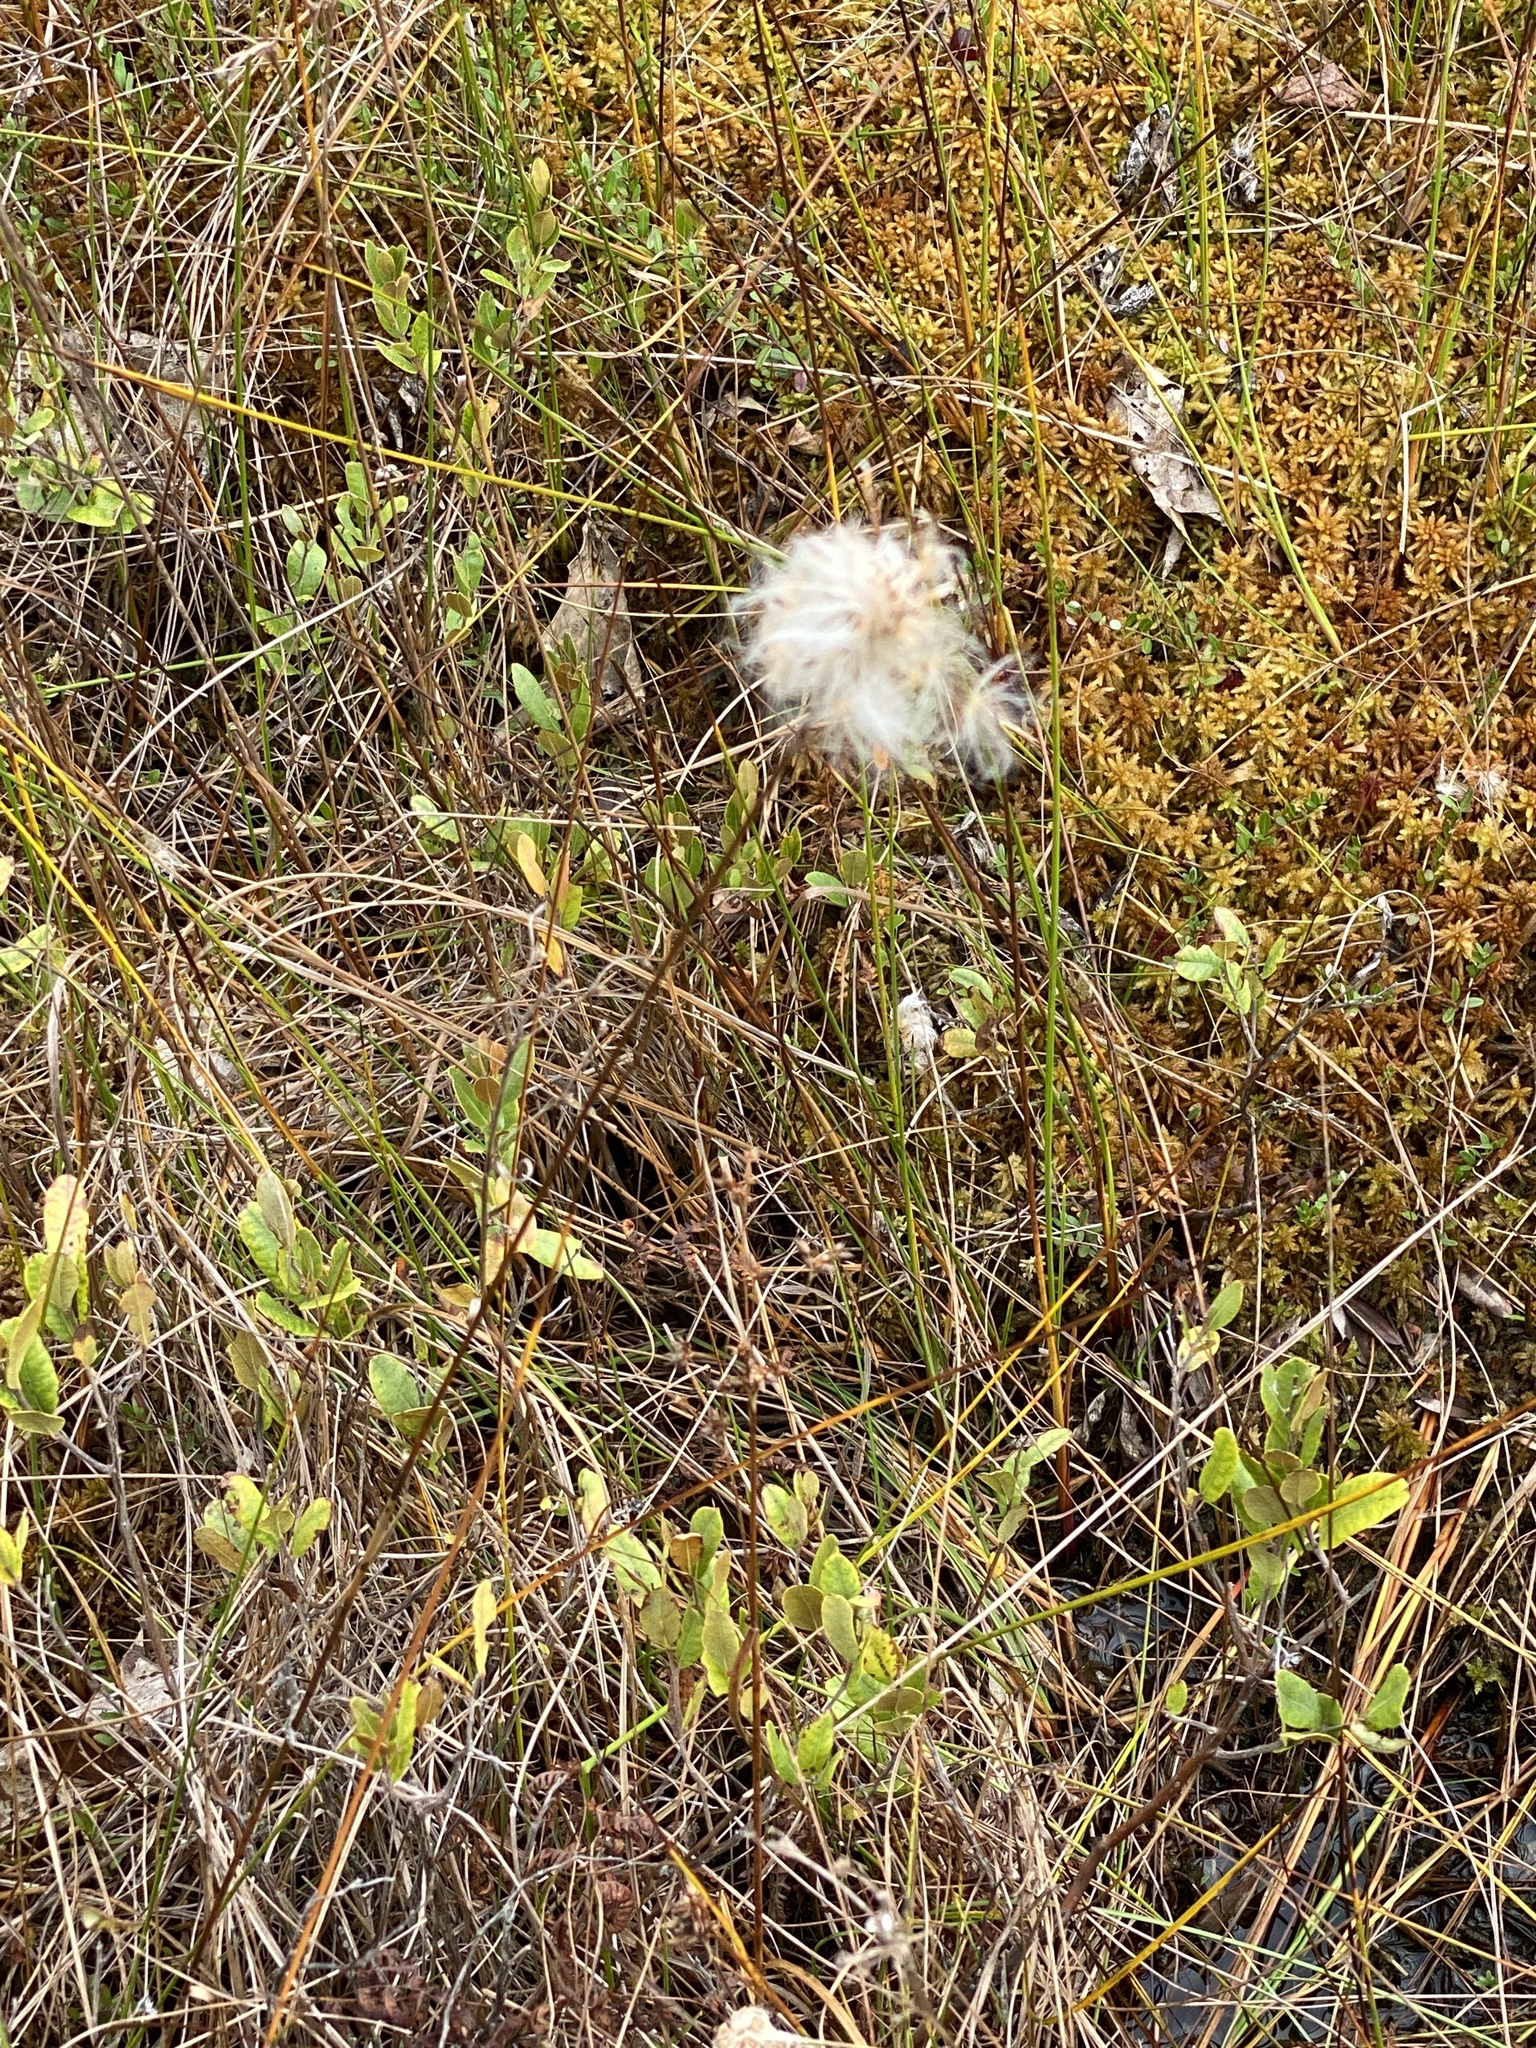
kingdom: Plantae
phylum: Tracheophyta
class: Liliopsida
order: Poales
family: Cyperaceae
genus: Eriophorum
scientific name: Eriophorum virginicum
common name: Tawny cottongrass
